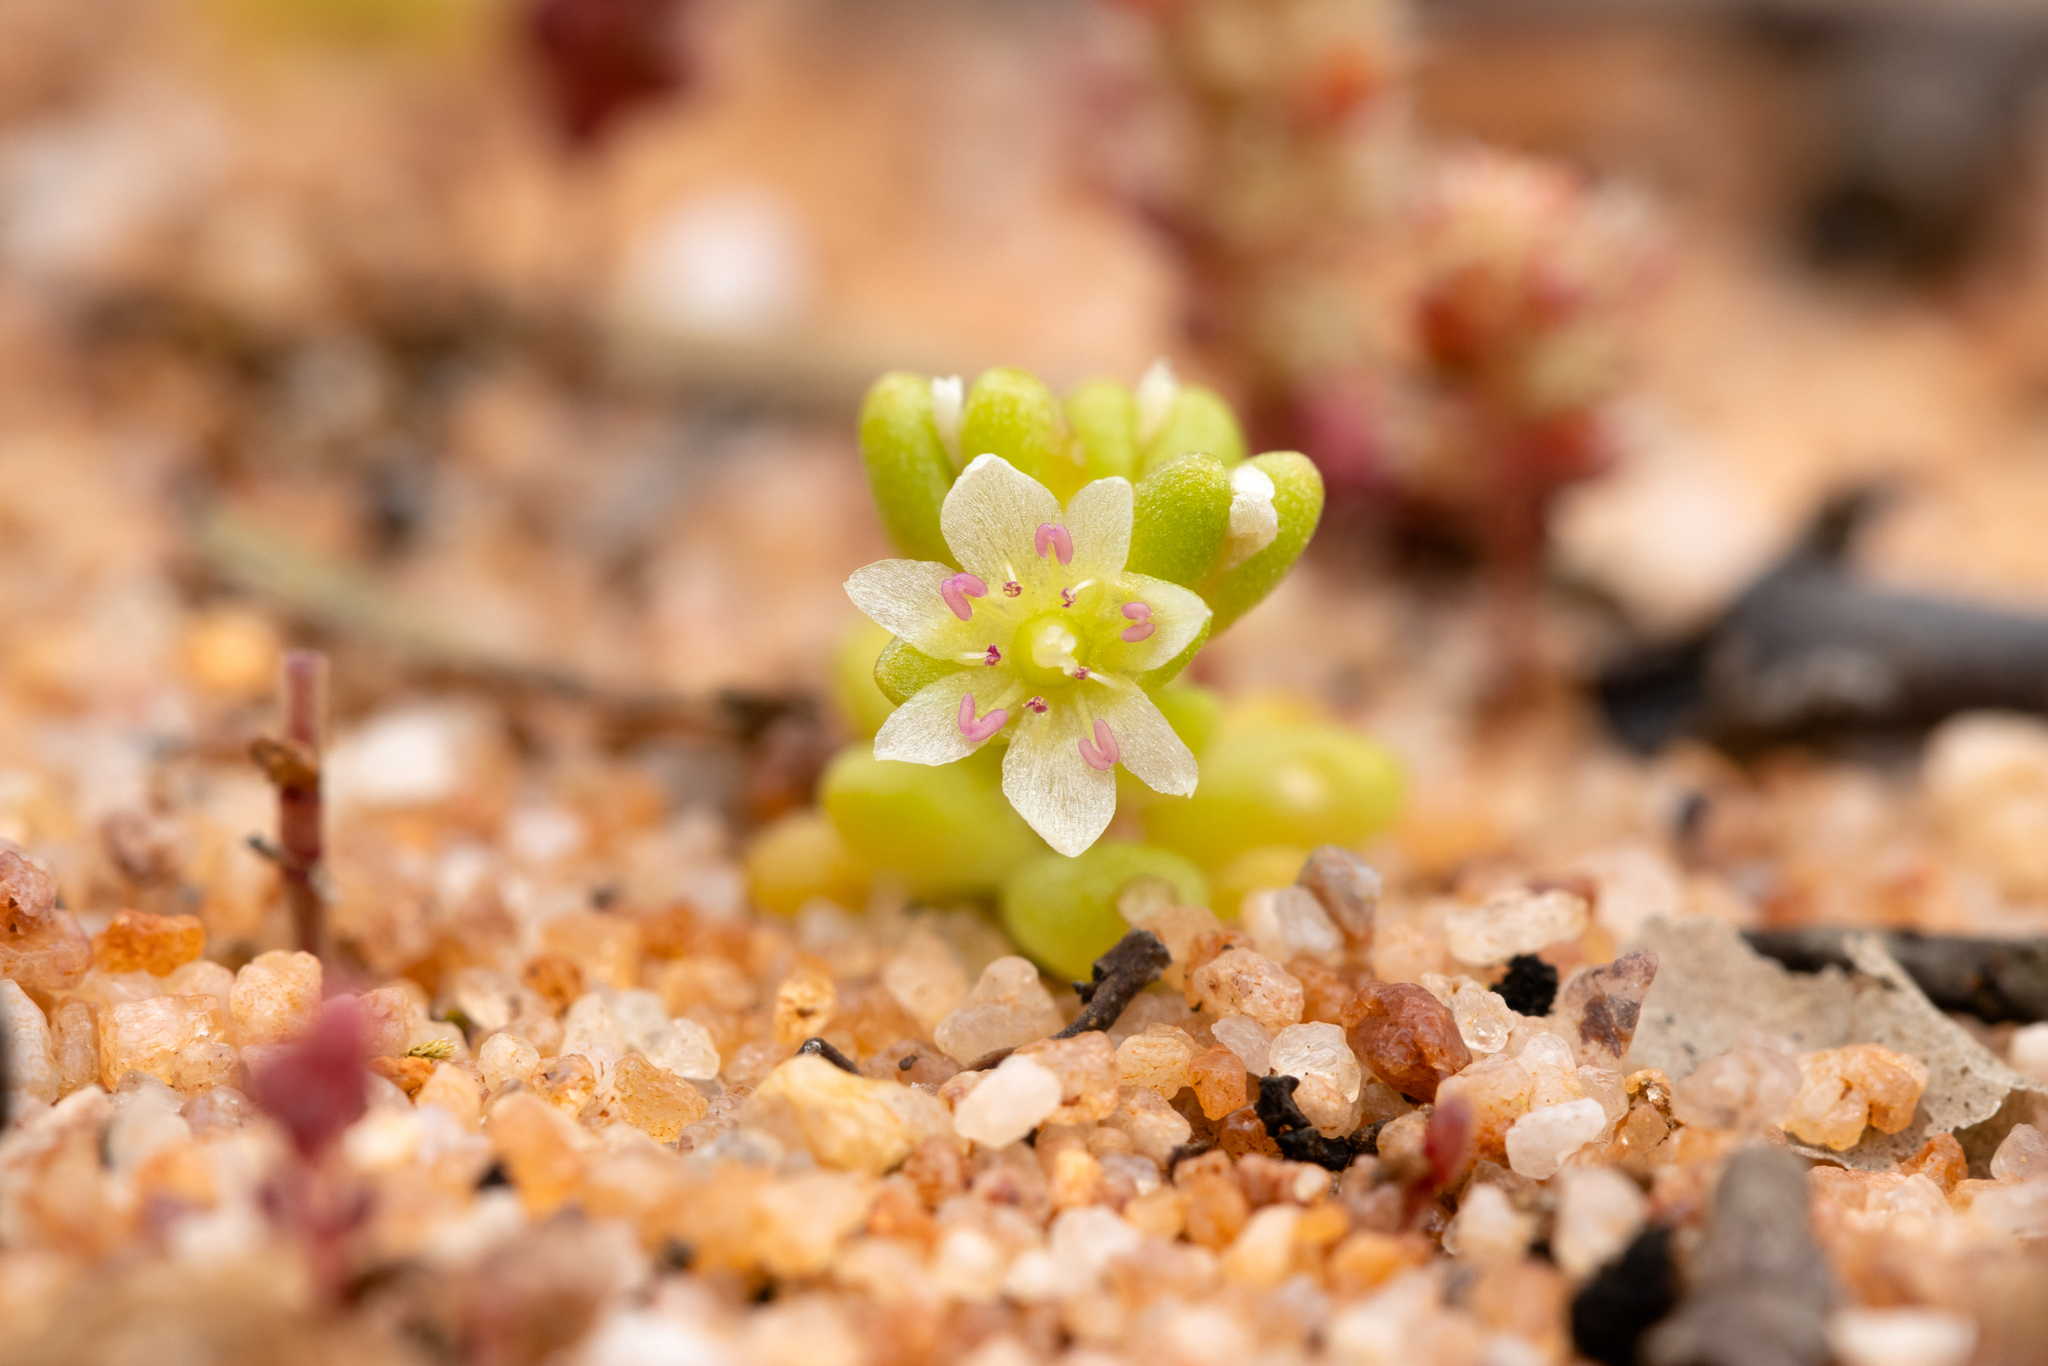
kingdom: Plantae
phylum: Tracheophyta
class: Magnoliopsida
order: Caryophyllales
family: Montiaceae
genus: Rumicastrum
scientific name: Rumicastrum granuliferum
